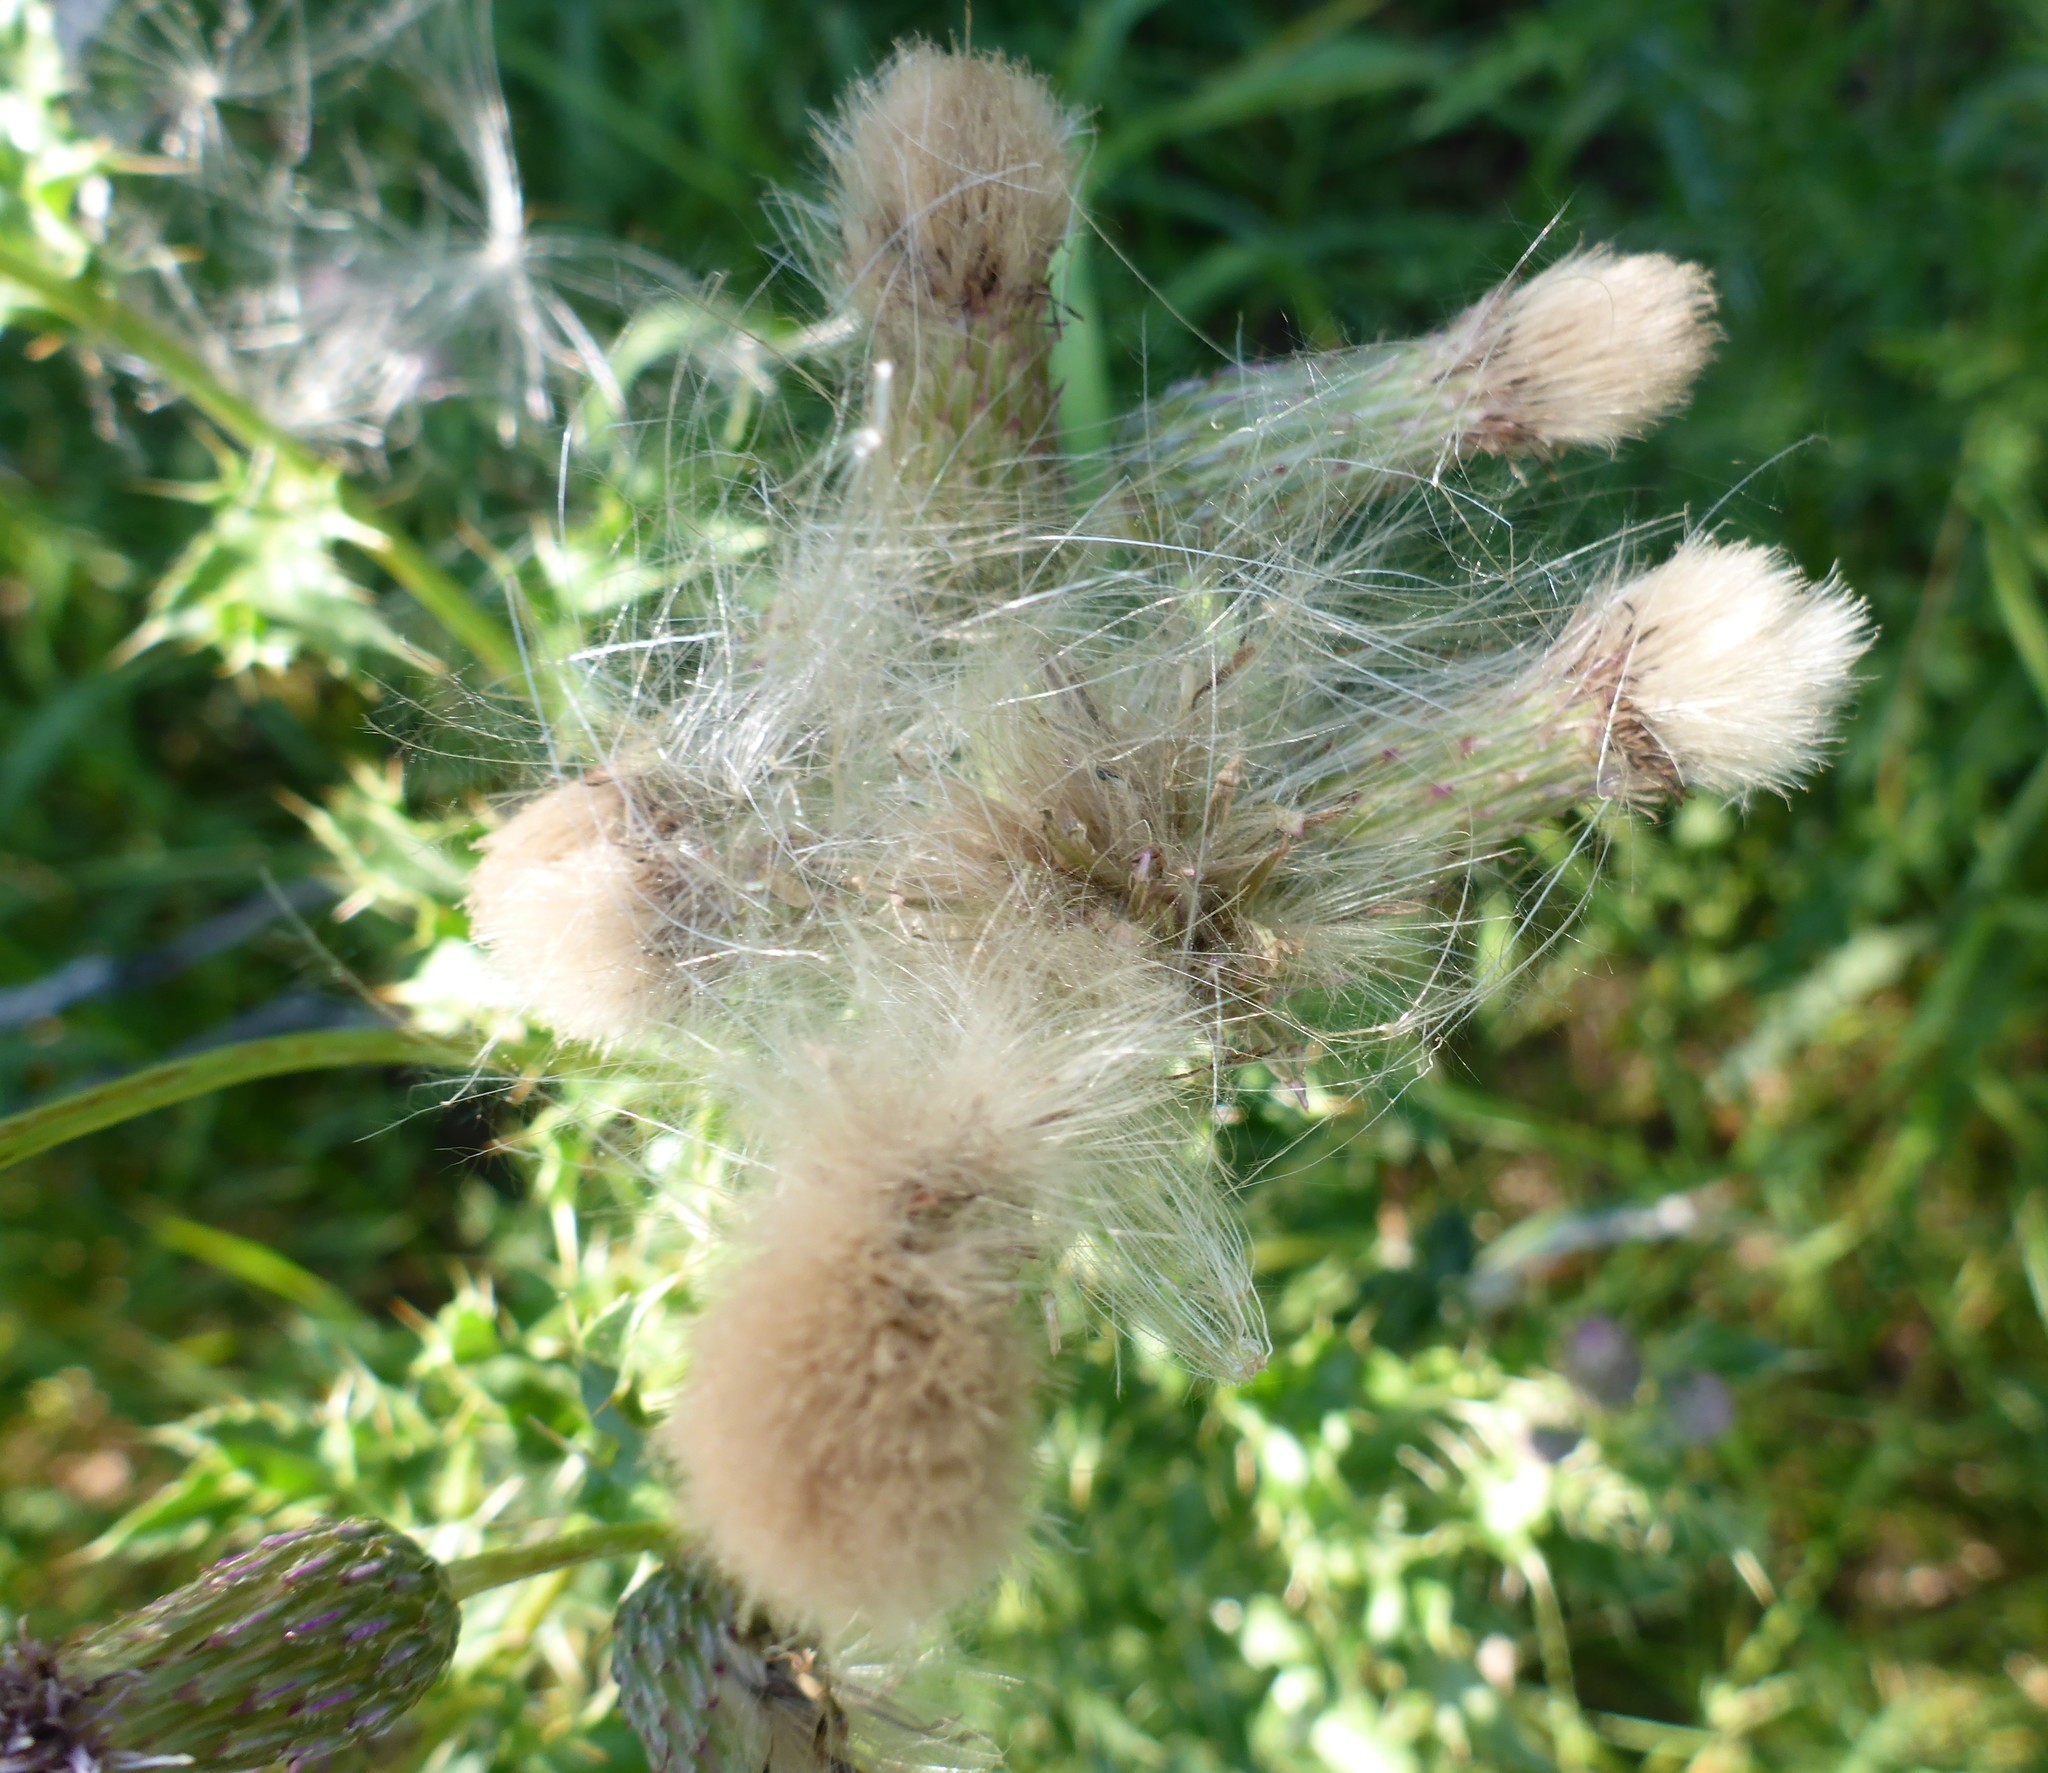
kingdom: Plantae
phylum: Tracheophyta
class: Magnoliopsida
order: Asterales
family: Asteraceae
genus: Cirsium
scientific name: Cirsium arvense
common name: Creeping thistle
